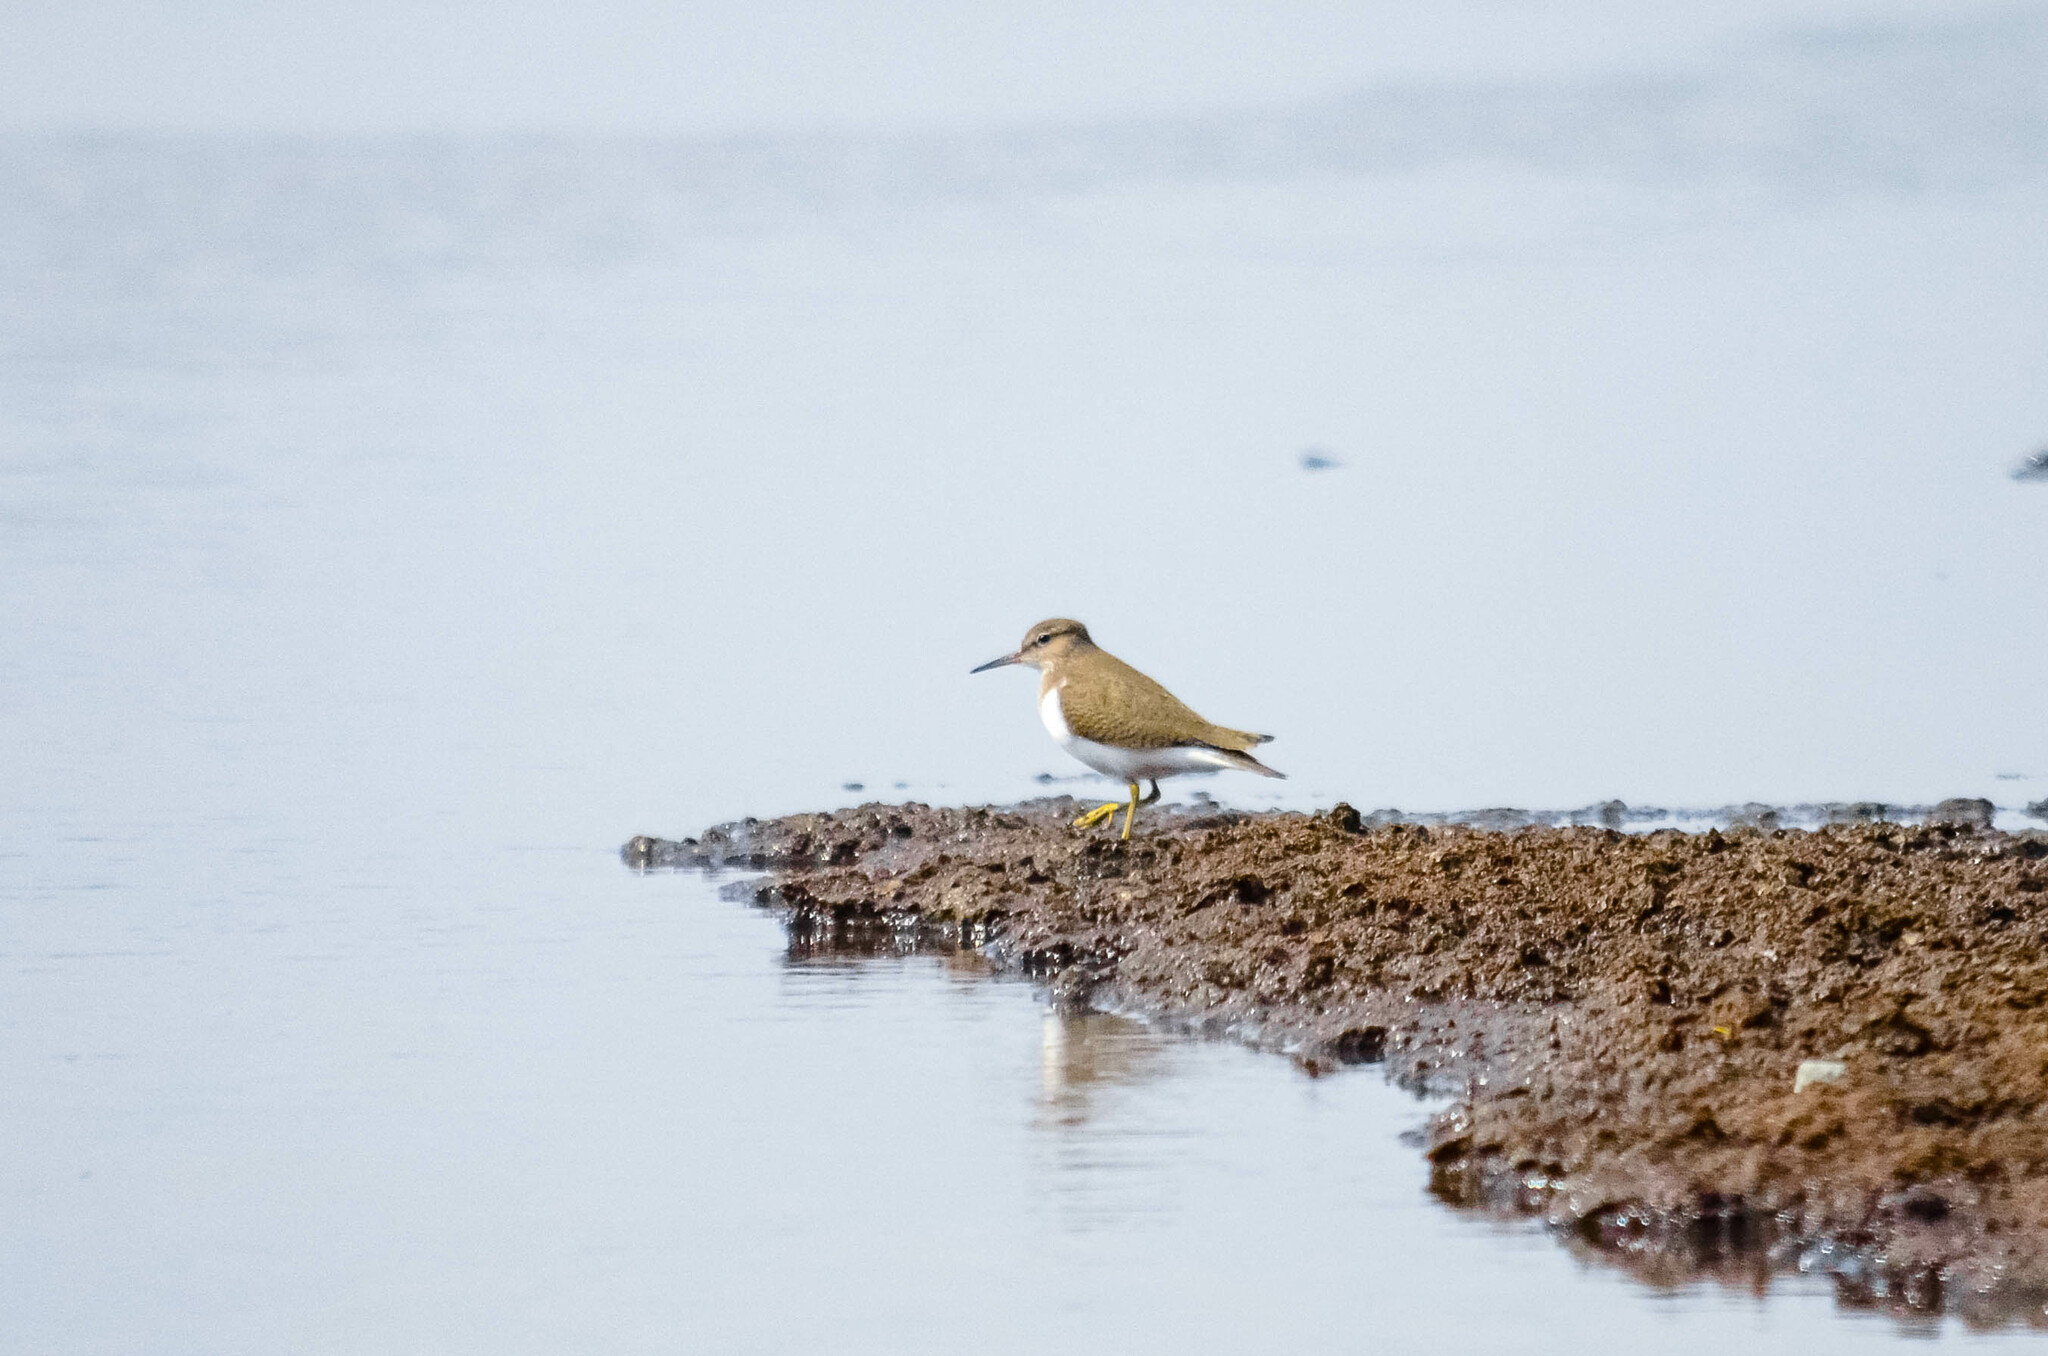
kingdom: Animalia
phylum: Chordata
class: Aves
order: Charadriiformes
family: Scolopacidae
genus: Actitis
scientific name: Actitis hypoleucos
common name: Common sandpiper
